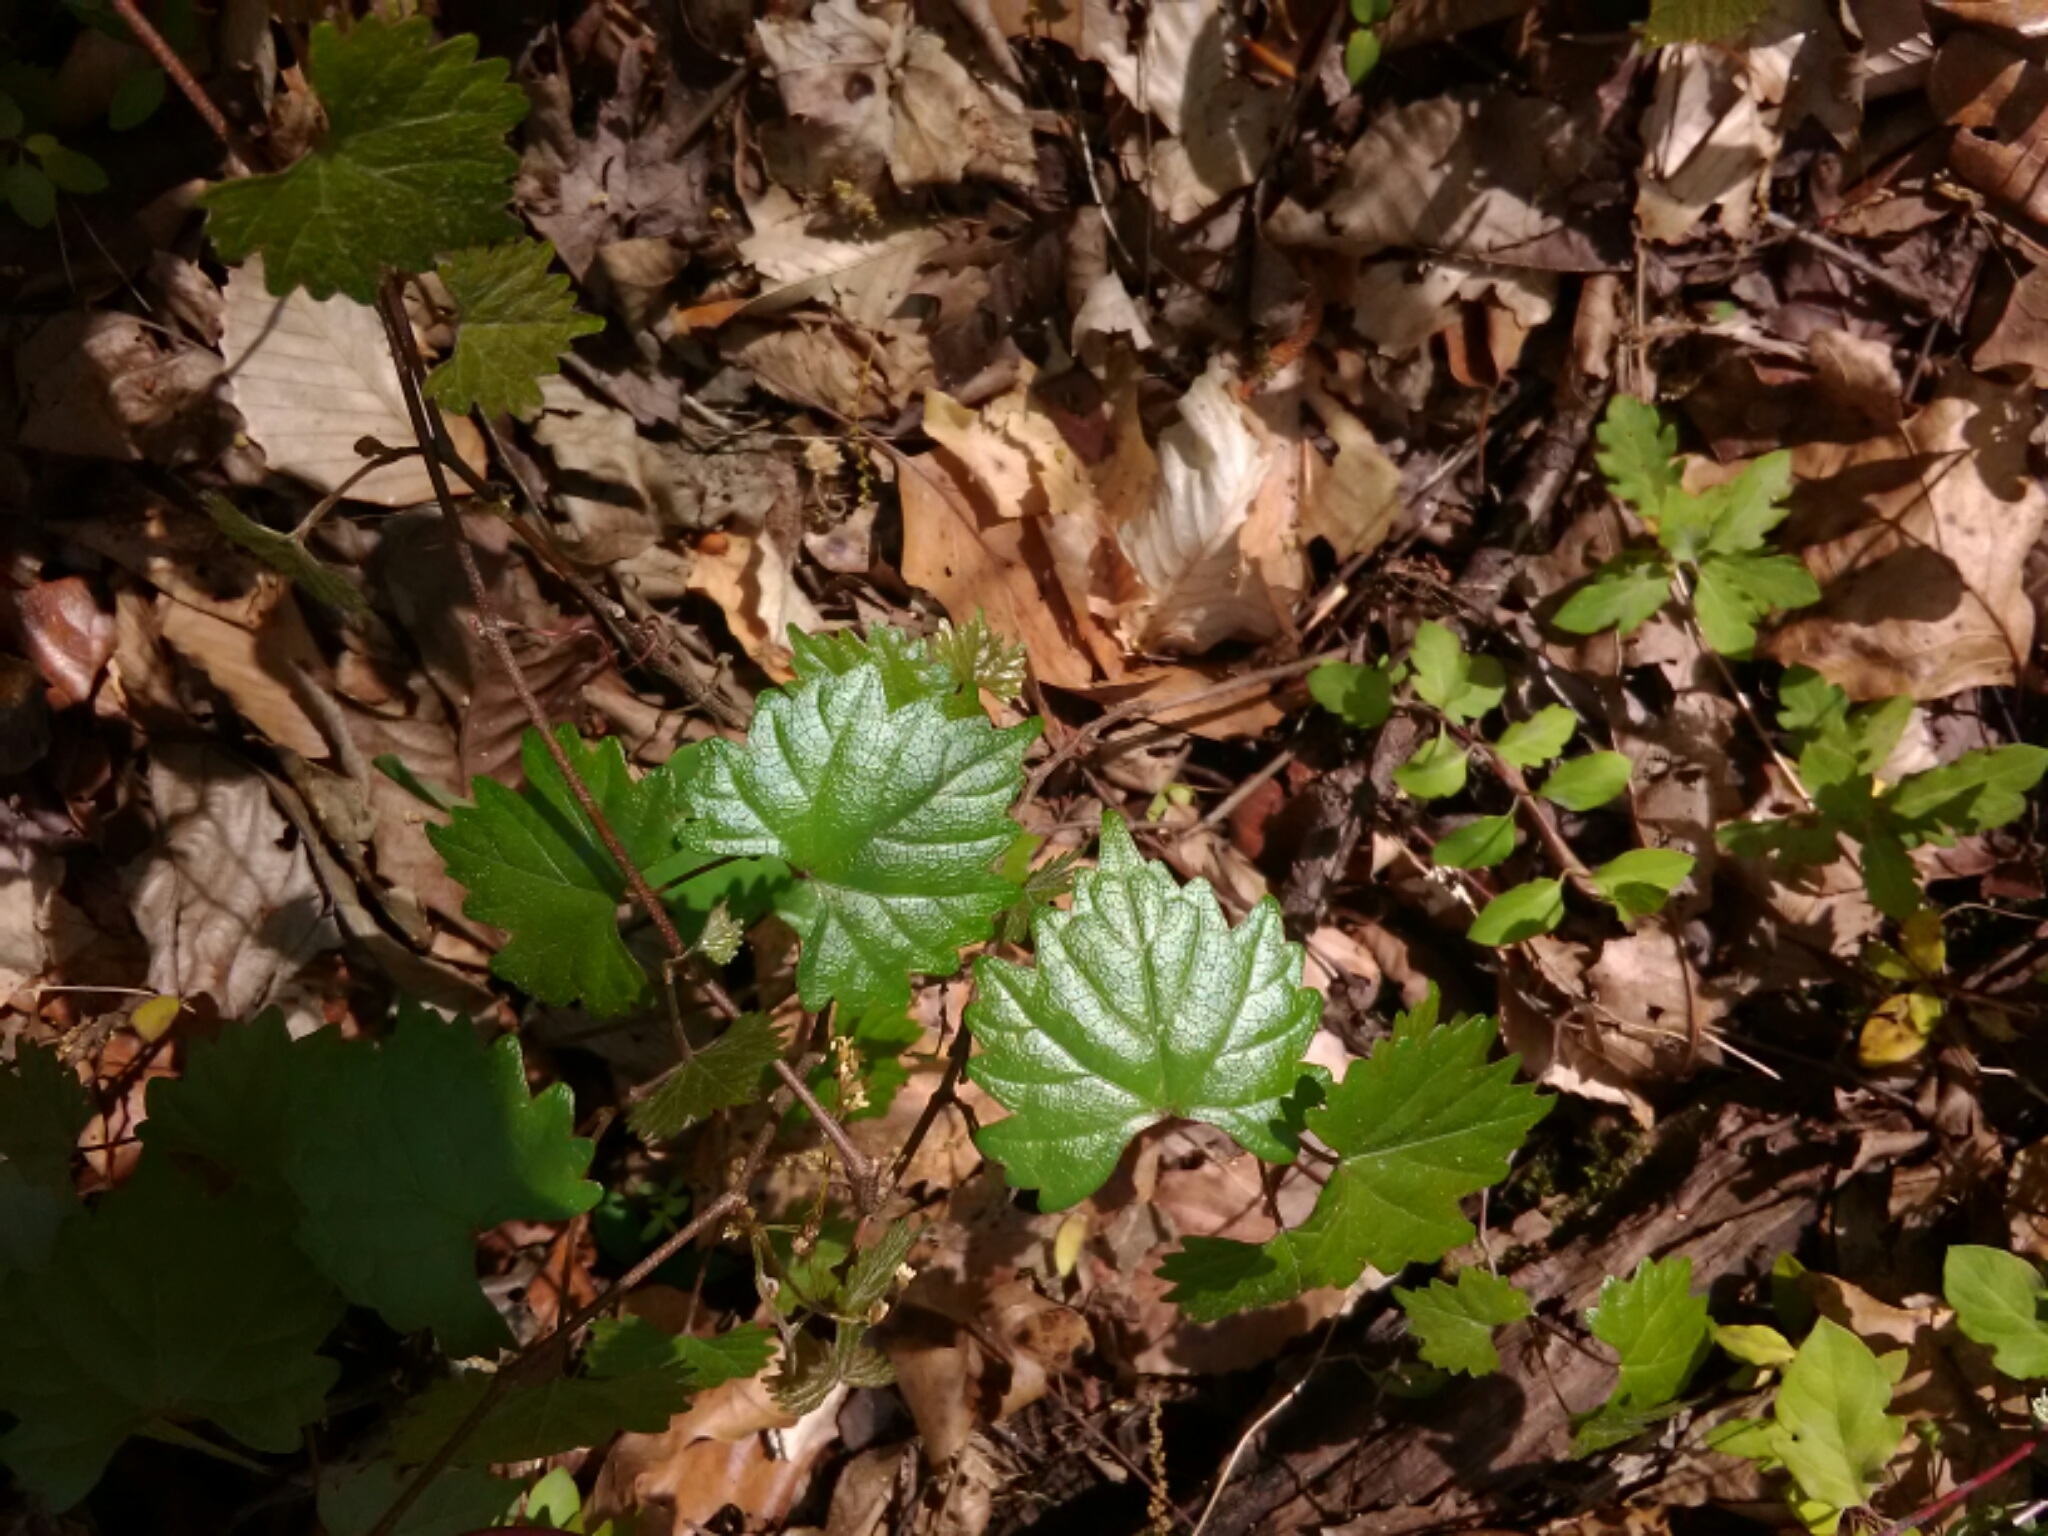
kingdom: Plantae
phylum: Tracheophyta
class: Magnoliopsida
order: Vitales
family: Vitaceae
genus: Vitis
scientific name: Vitis rotundifolia
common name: Muscadine grape
